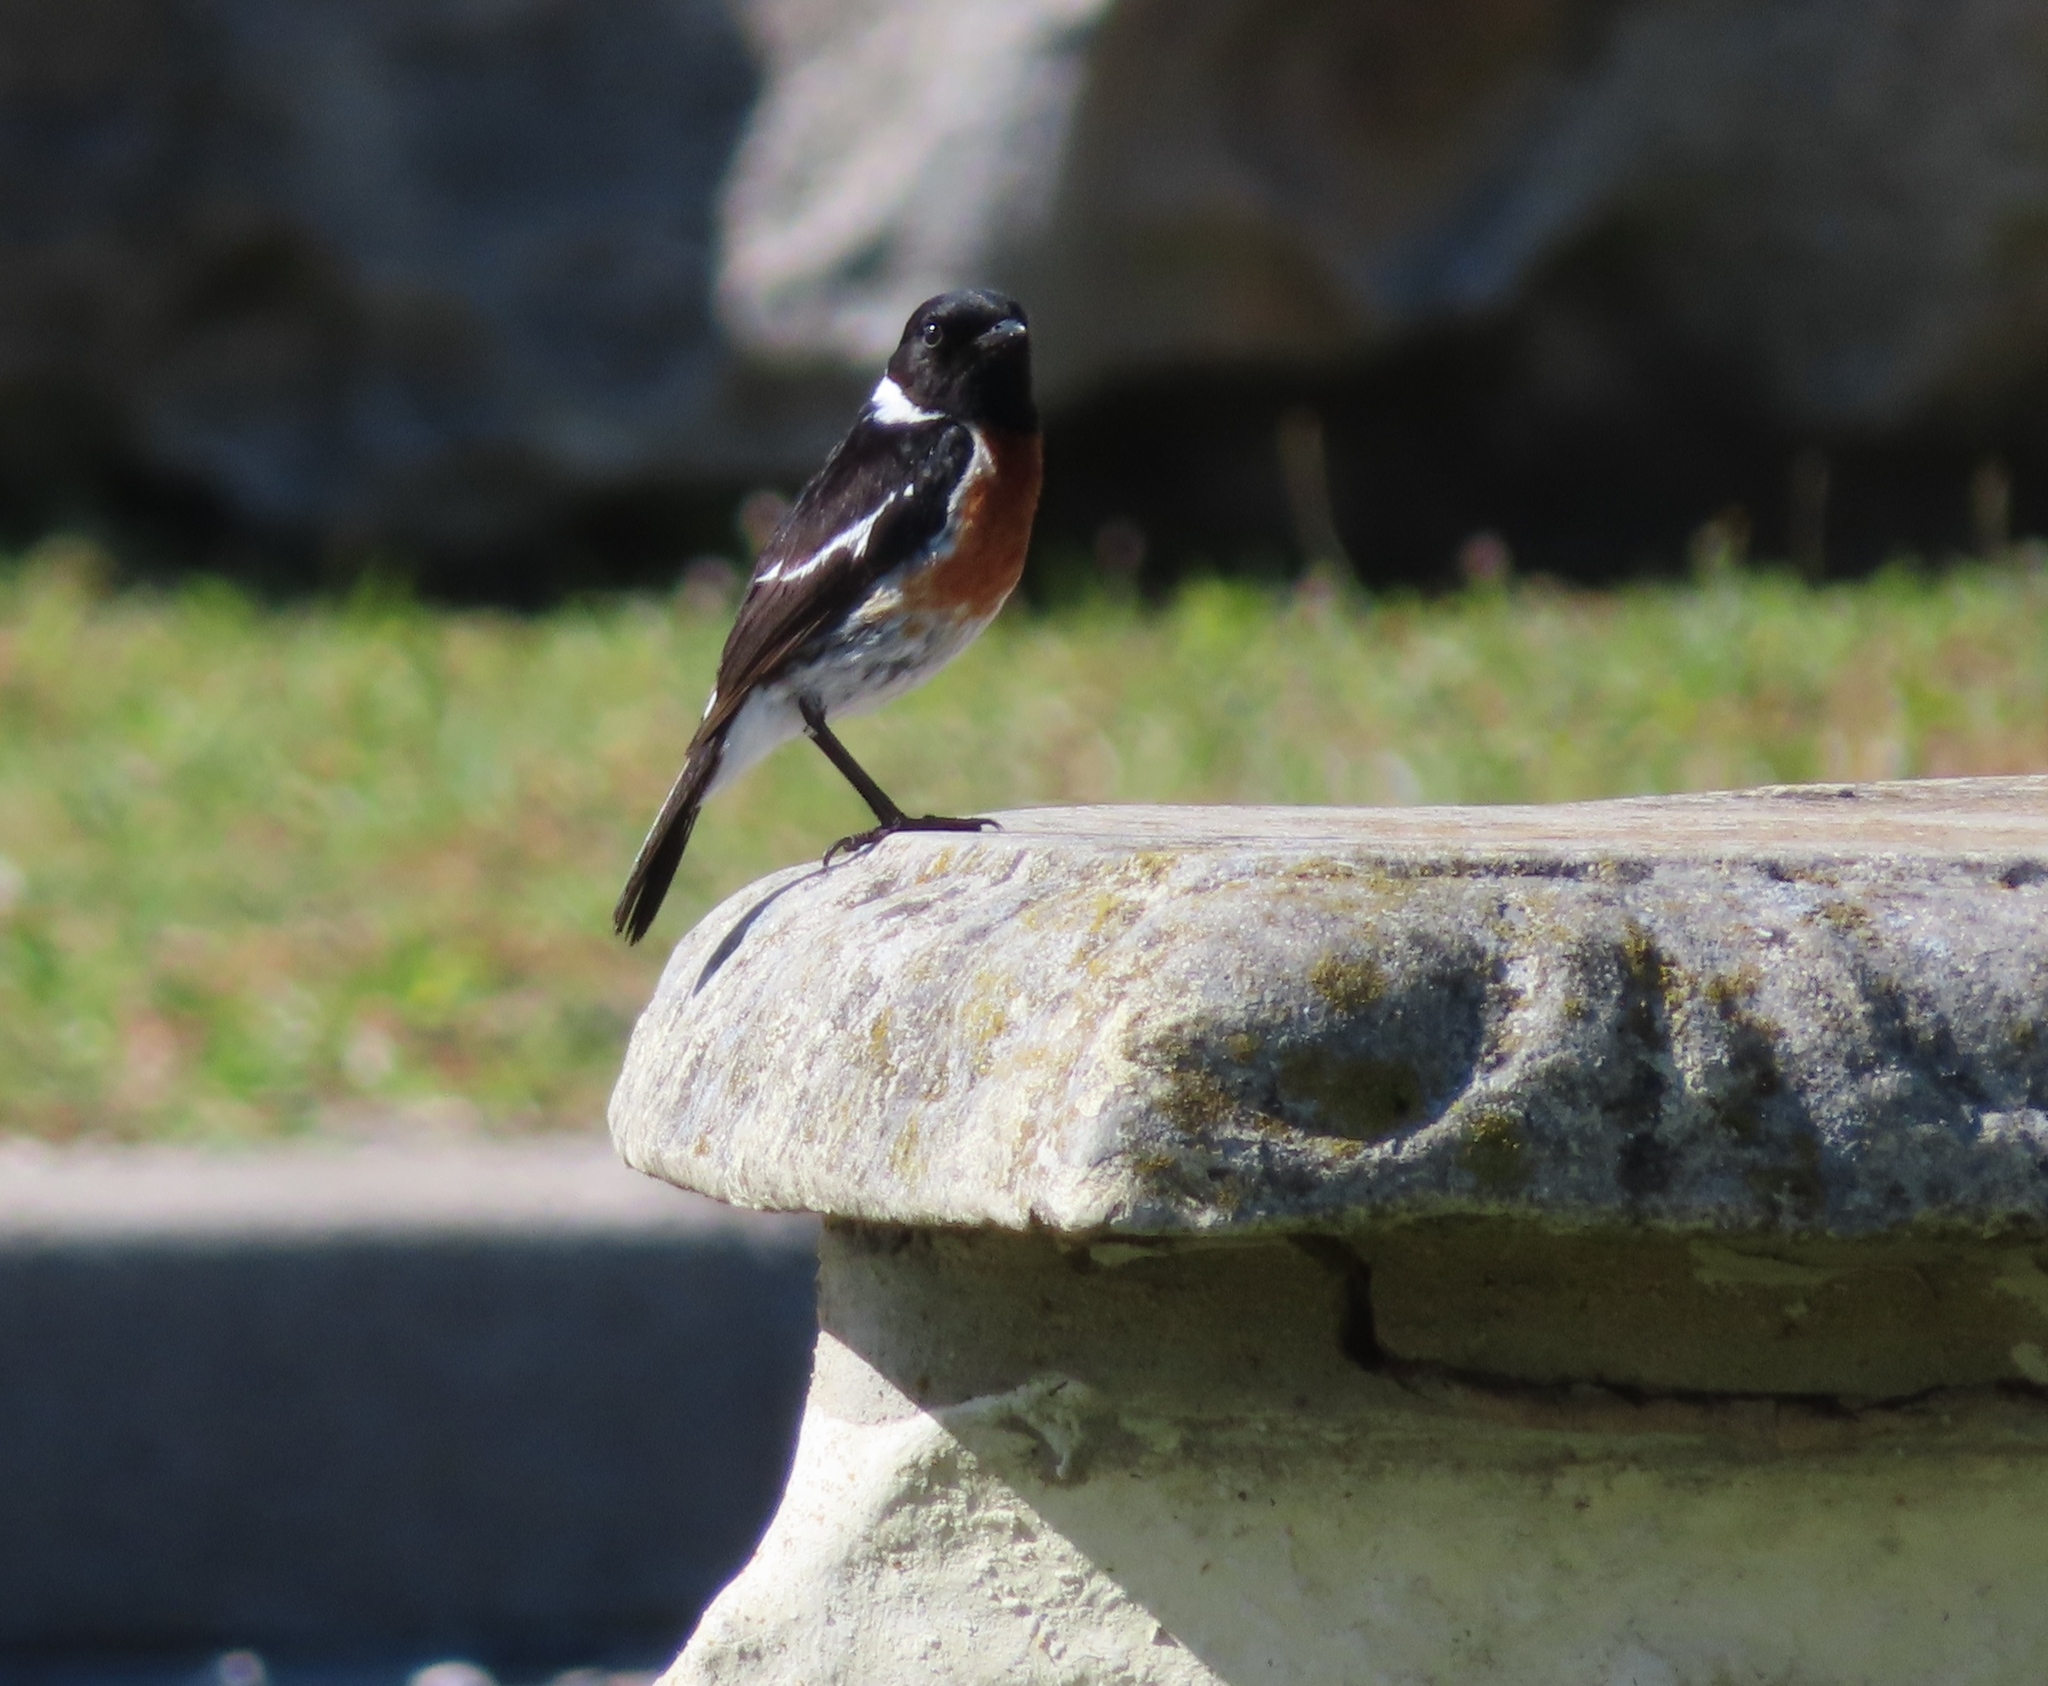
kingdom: Animalia
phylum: Chordata
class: Aves
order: Passeriformes
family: Muscicapidae
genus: Saxicola
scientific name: Saxicola torquatus
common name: African stonechat
